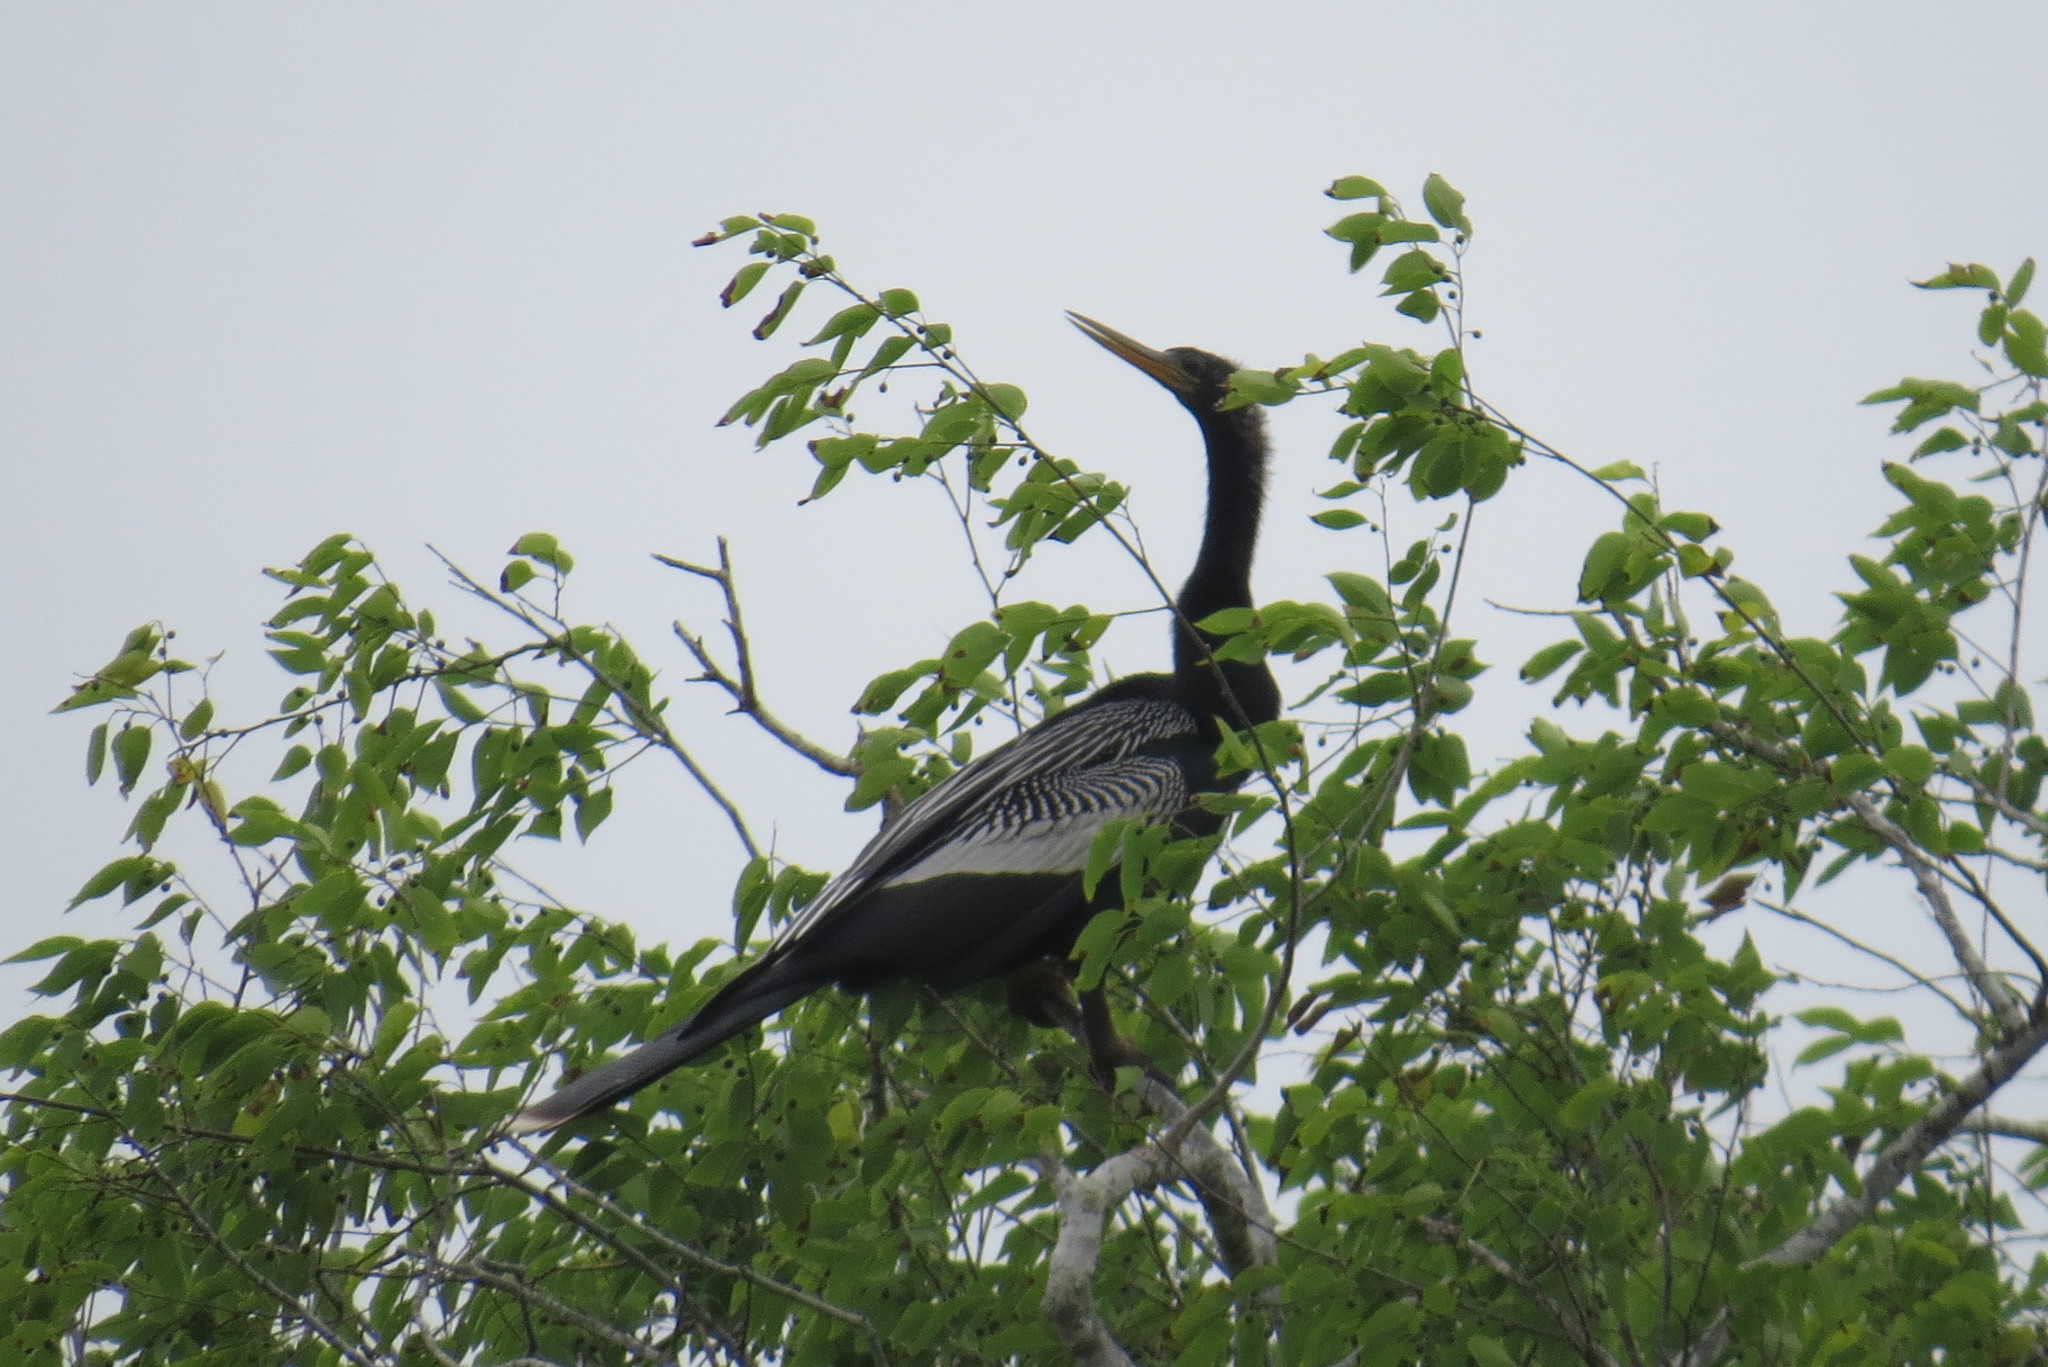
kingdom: Animalia
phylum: Chordata
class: Aves
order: Suliformes
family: Anhingidae
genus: Anhinga
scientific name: Anhinga anhinga
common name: Anhinga
